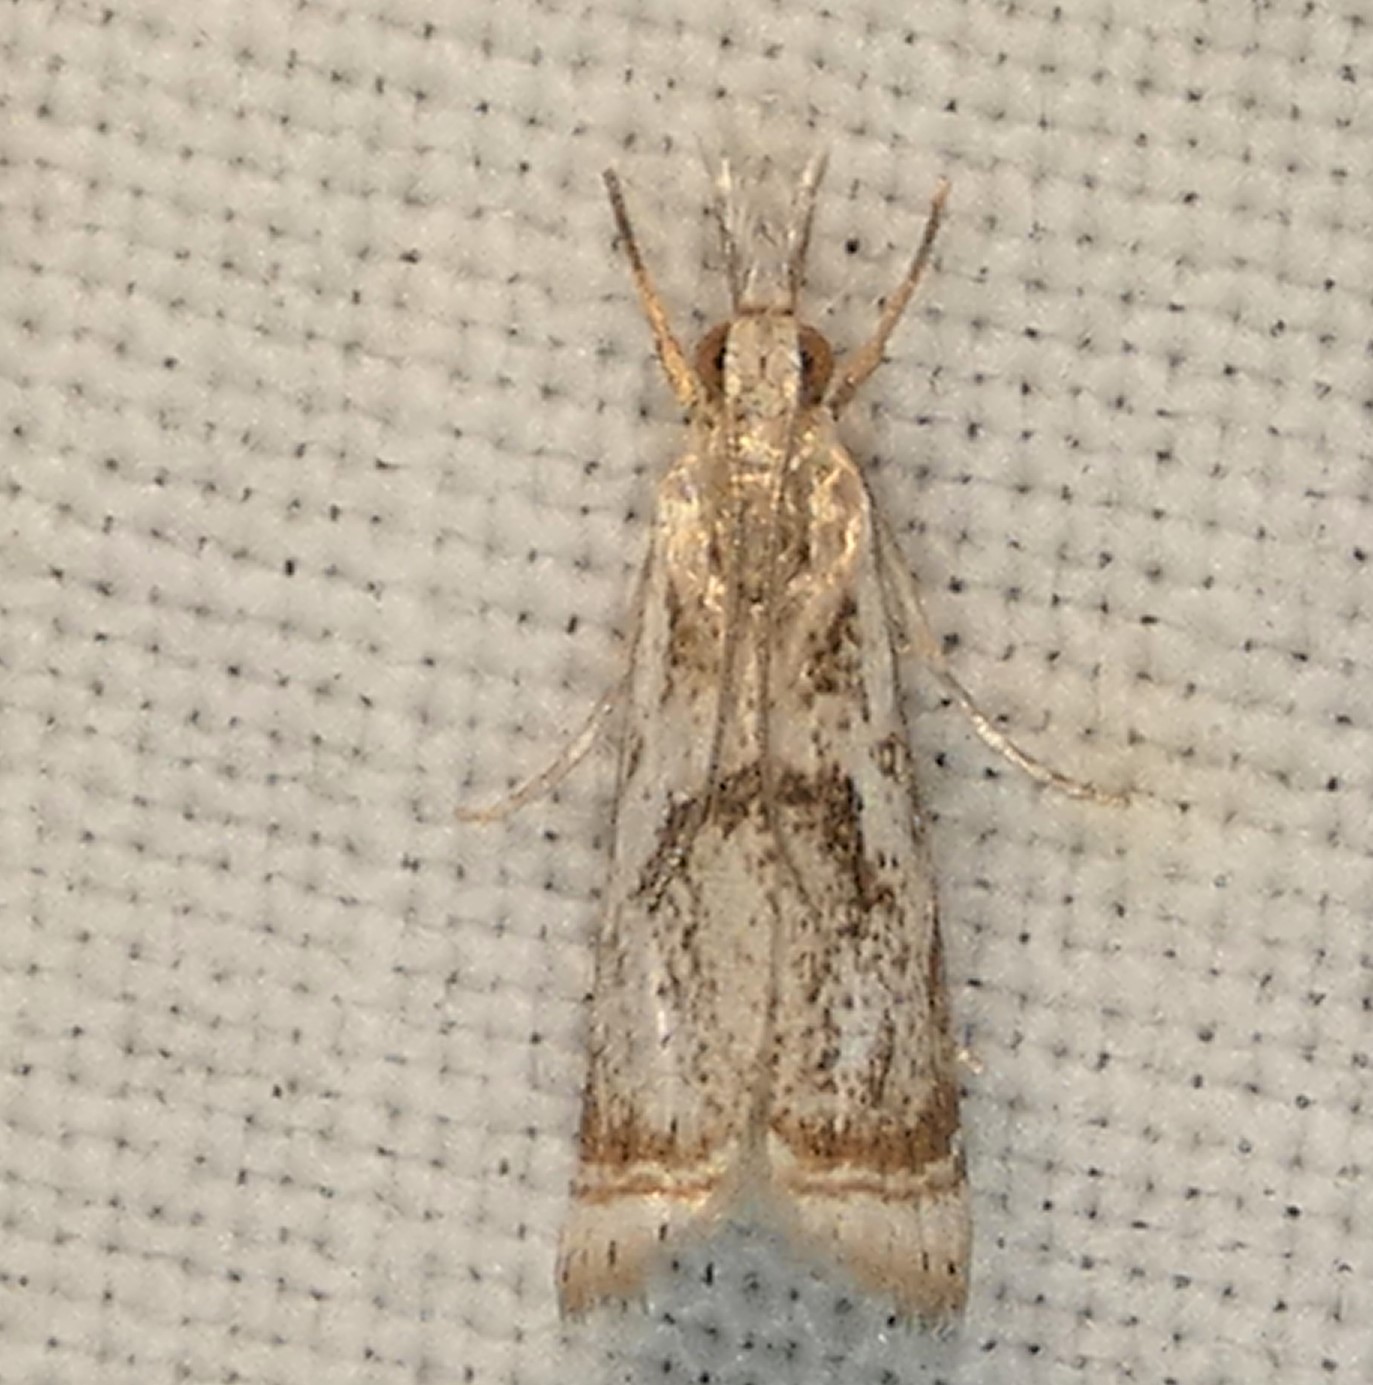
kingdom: Animalia
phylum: Arthropoda
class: Insecta
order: Lepidoptera
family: Crambidae
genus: Microcrambus
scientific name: Microcrambus elegans
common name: Elegant grass-veneer
